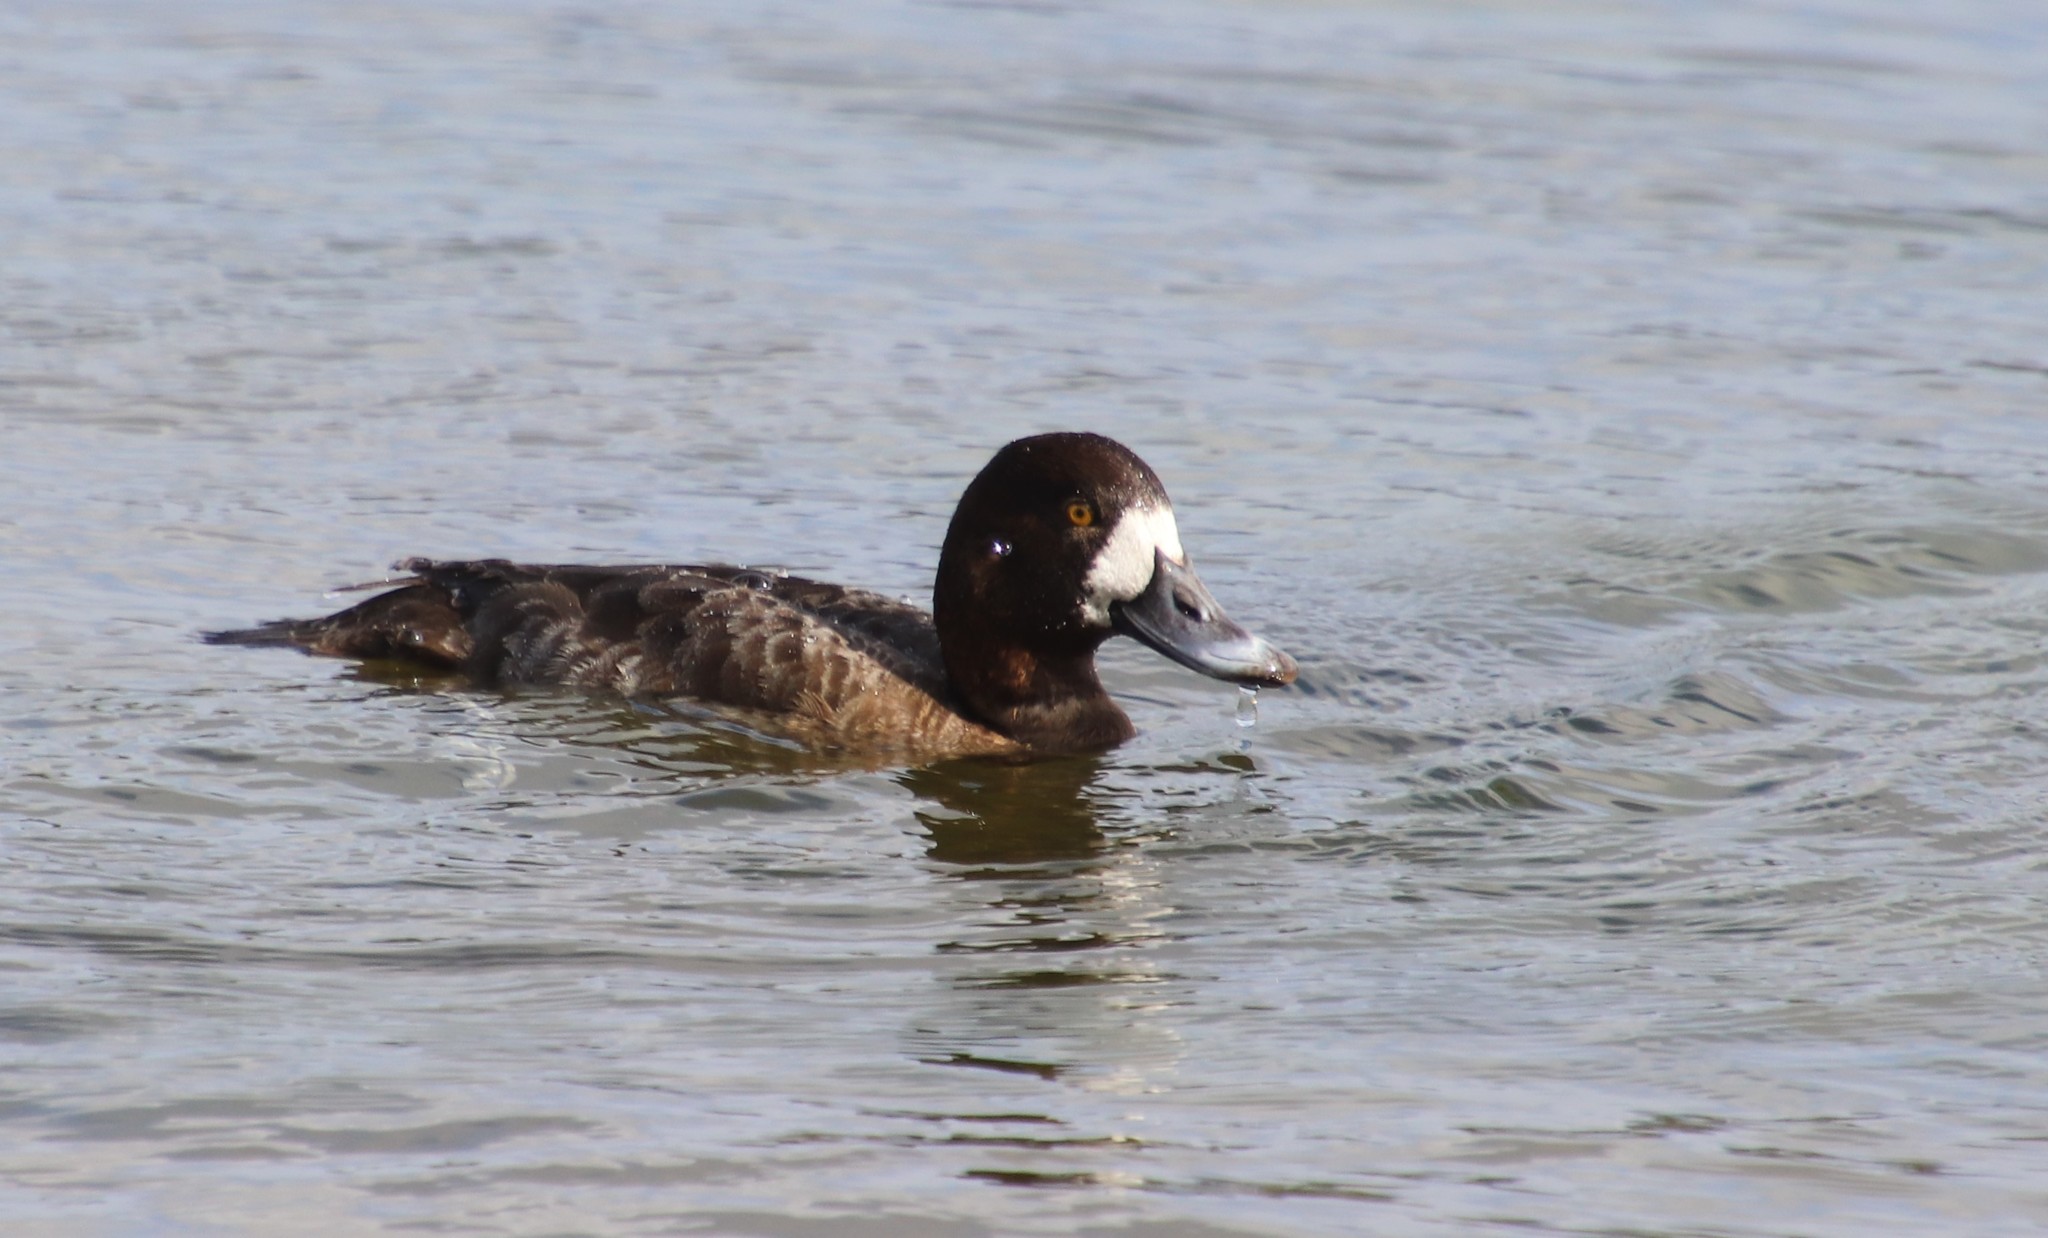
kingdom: Animalia
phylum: Chordata
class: Aves
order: Anseriformes
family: Anatidae
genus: Aythya
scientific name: Aythya marila
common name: Greater scaup
